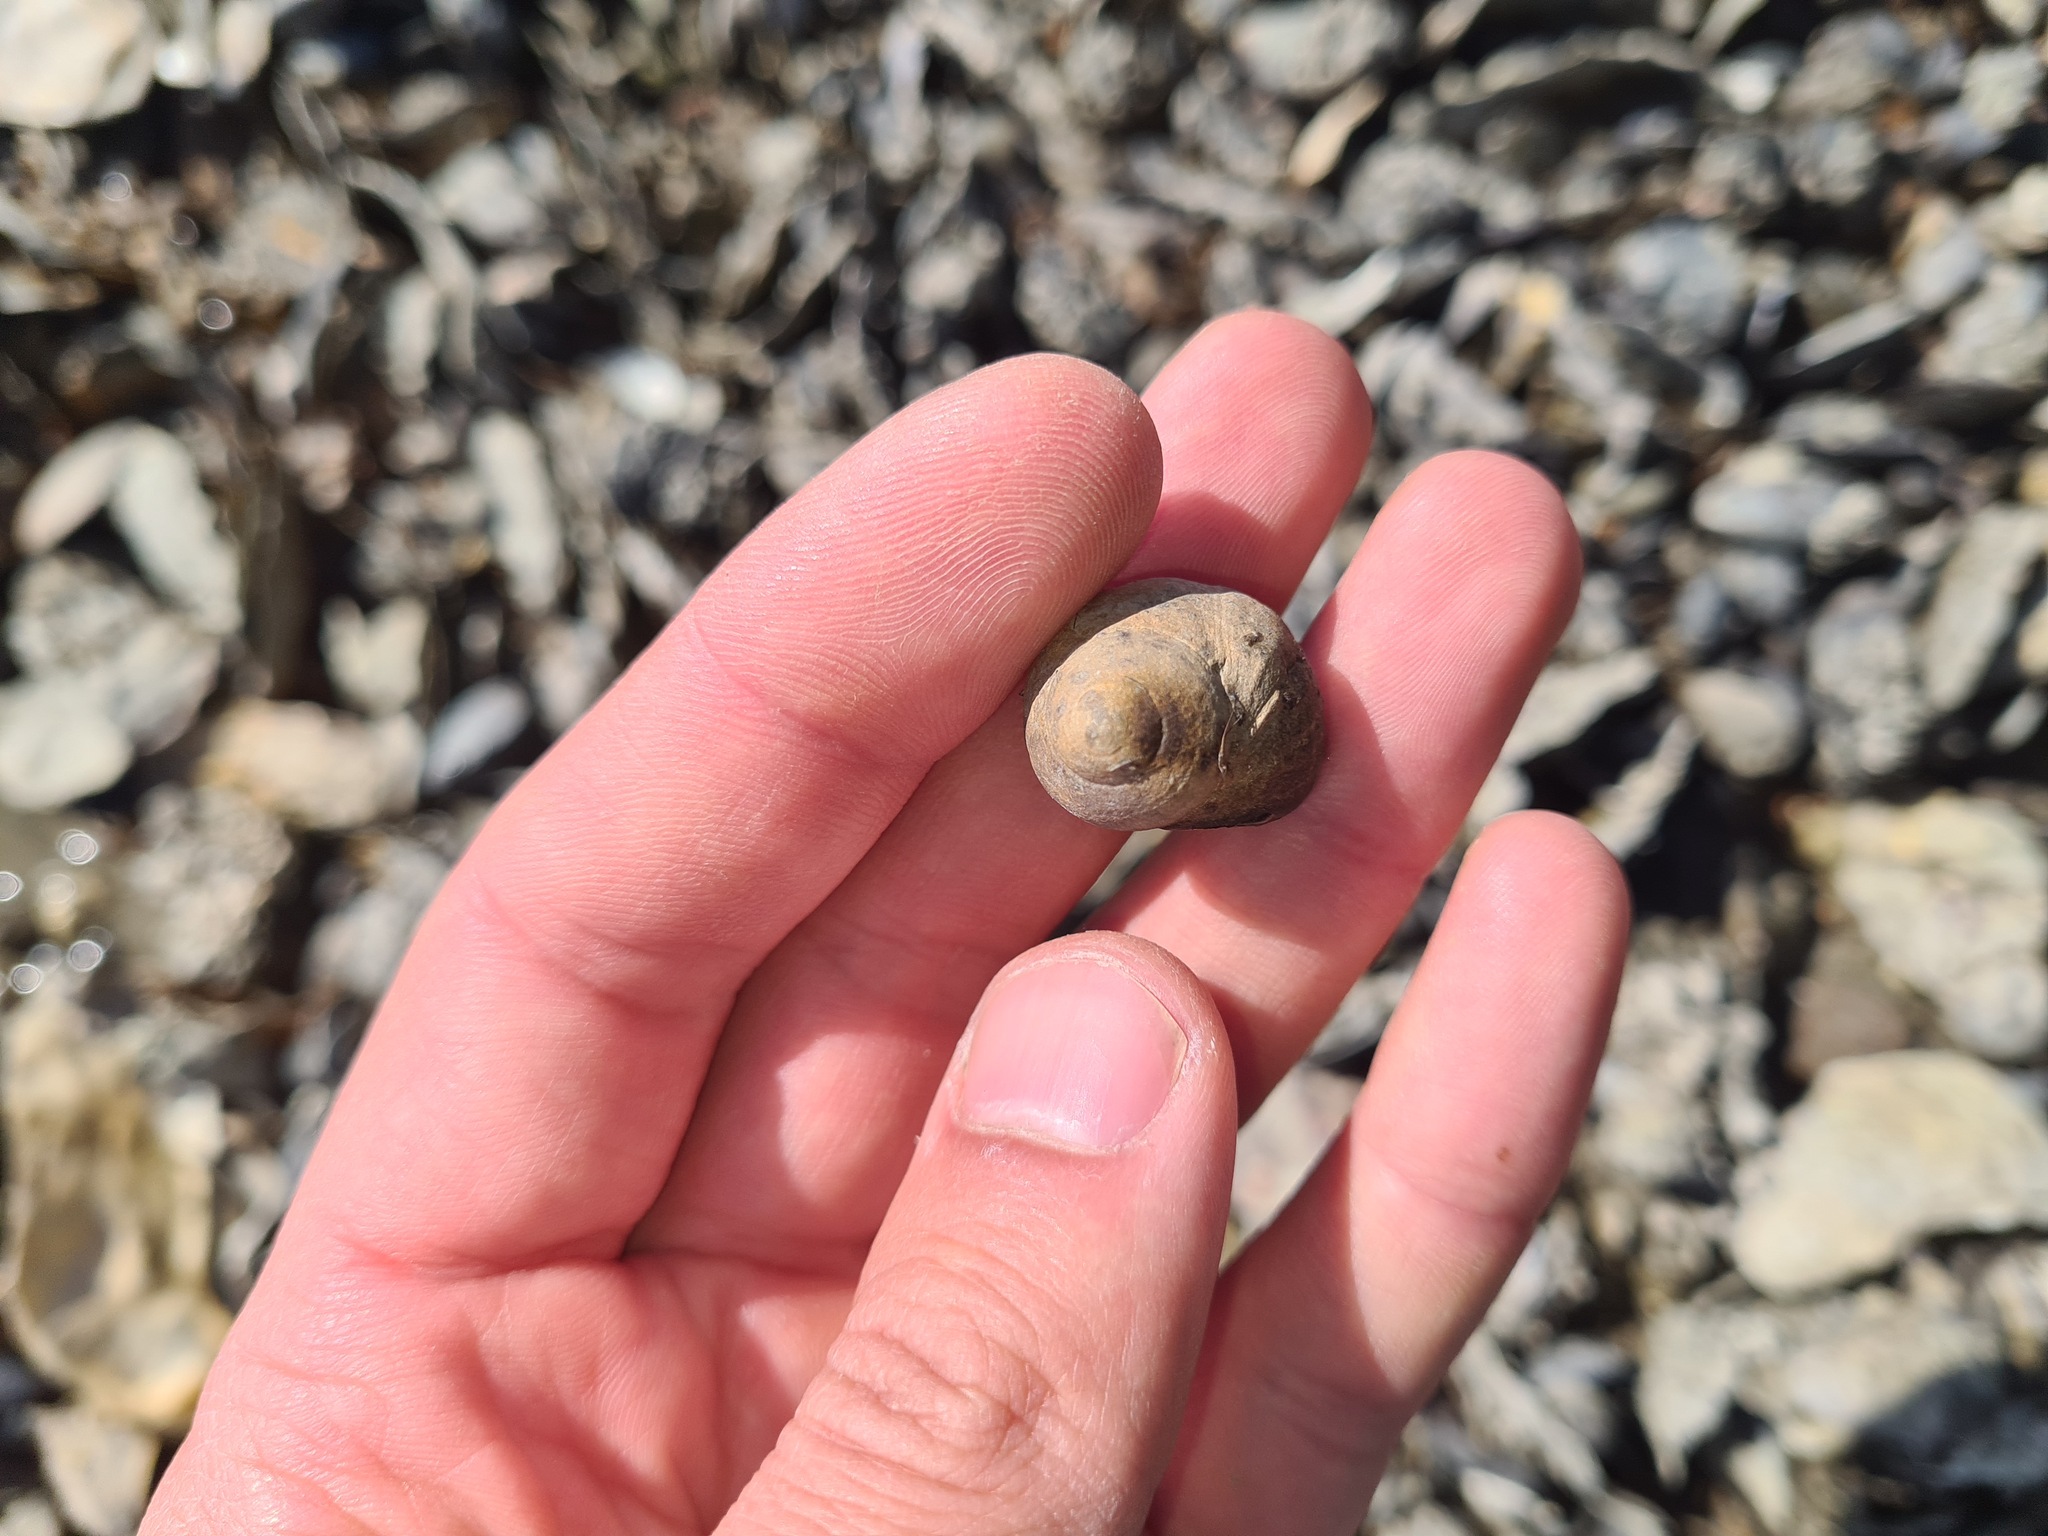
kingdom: Animalia
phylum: Mollusca
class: Gastropoda
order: Littorinimorpha
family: Littorinidae
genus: Littorina
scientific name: Littorina littorea
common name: Common periwinkle
